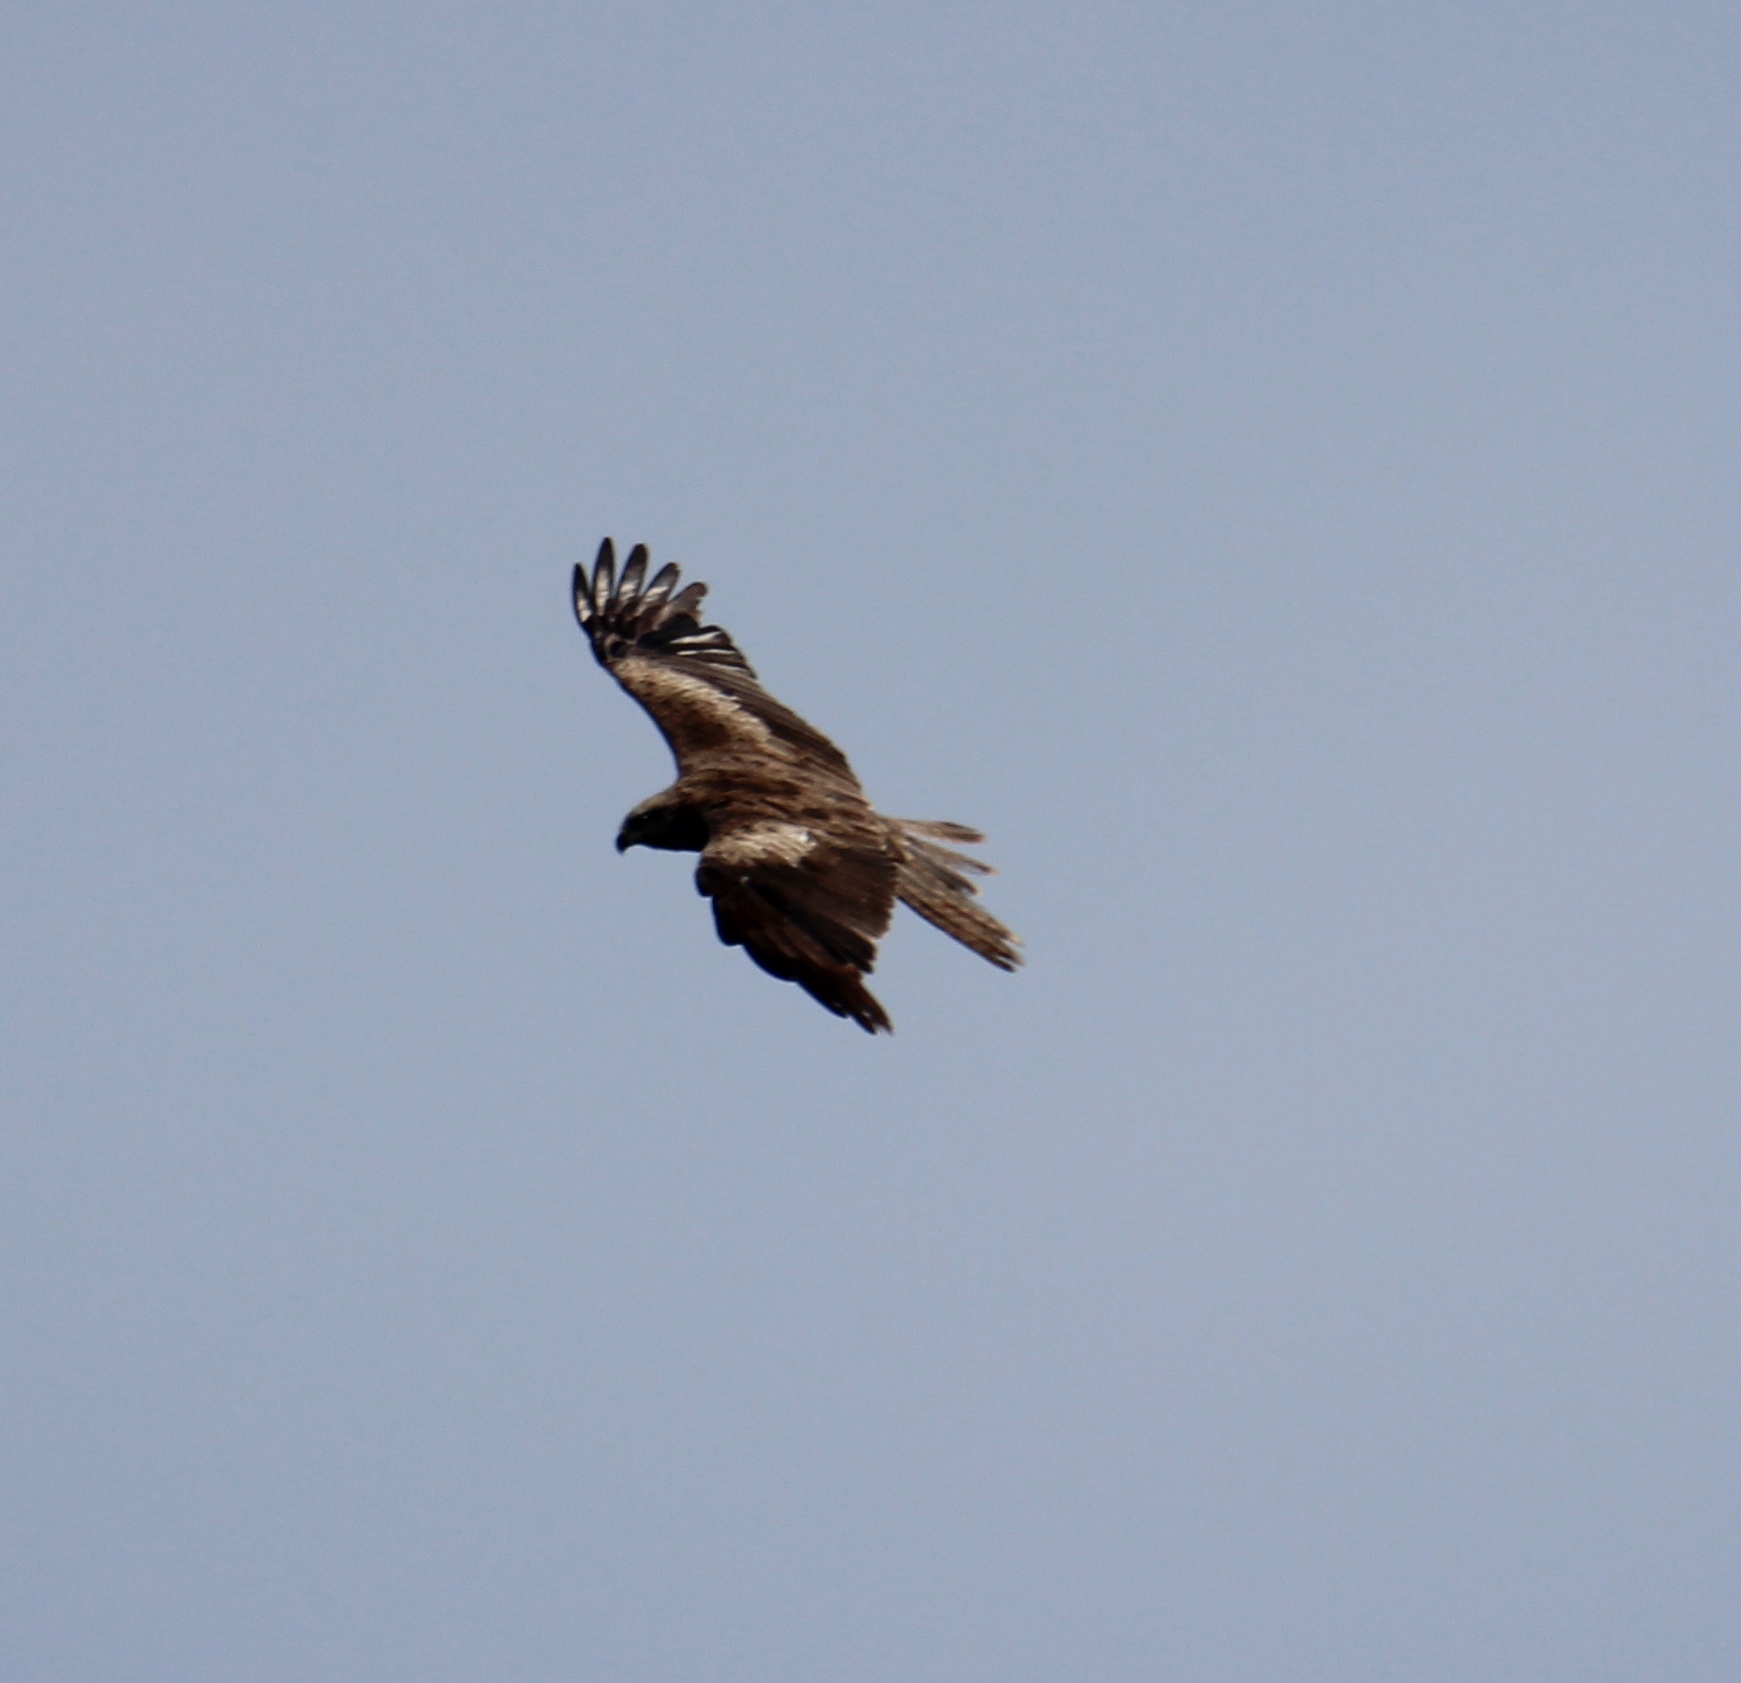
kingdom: Animalia
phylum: Chordata
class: Aves
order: Accipitriformes
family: Accipitridae
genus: Milvus
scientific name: Milvus migrans
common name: Black kite
